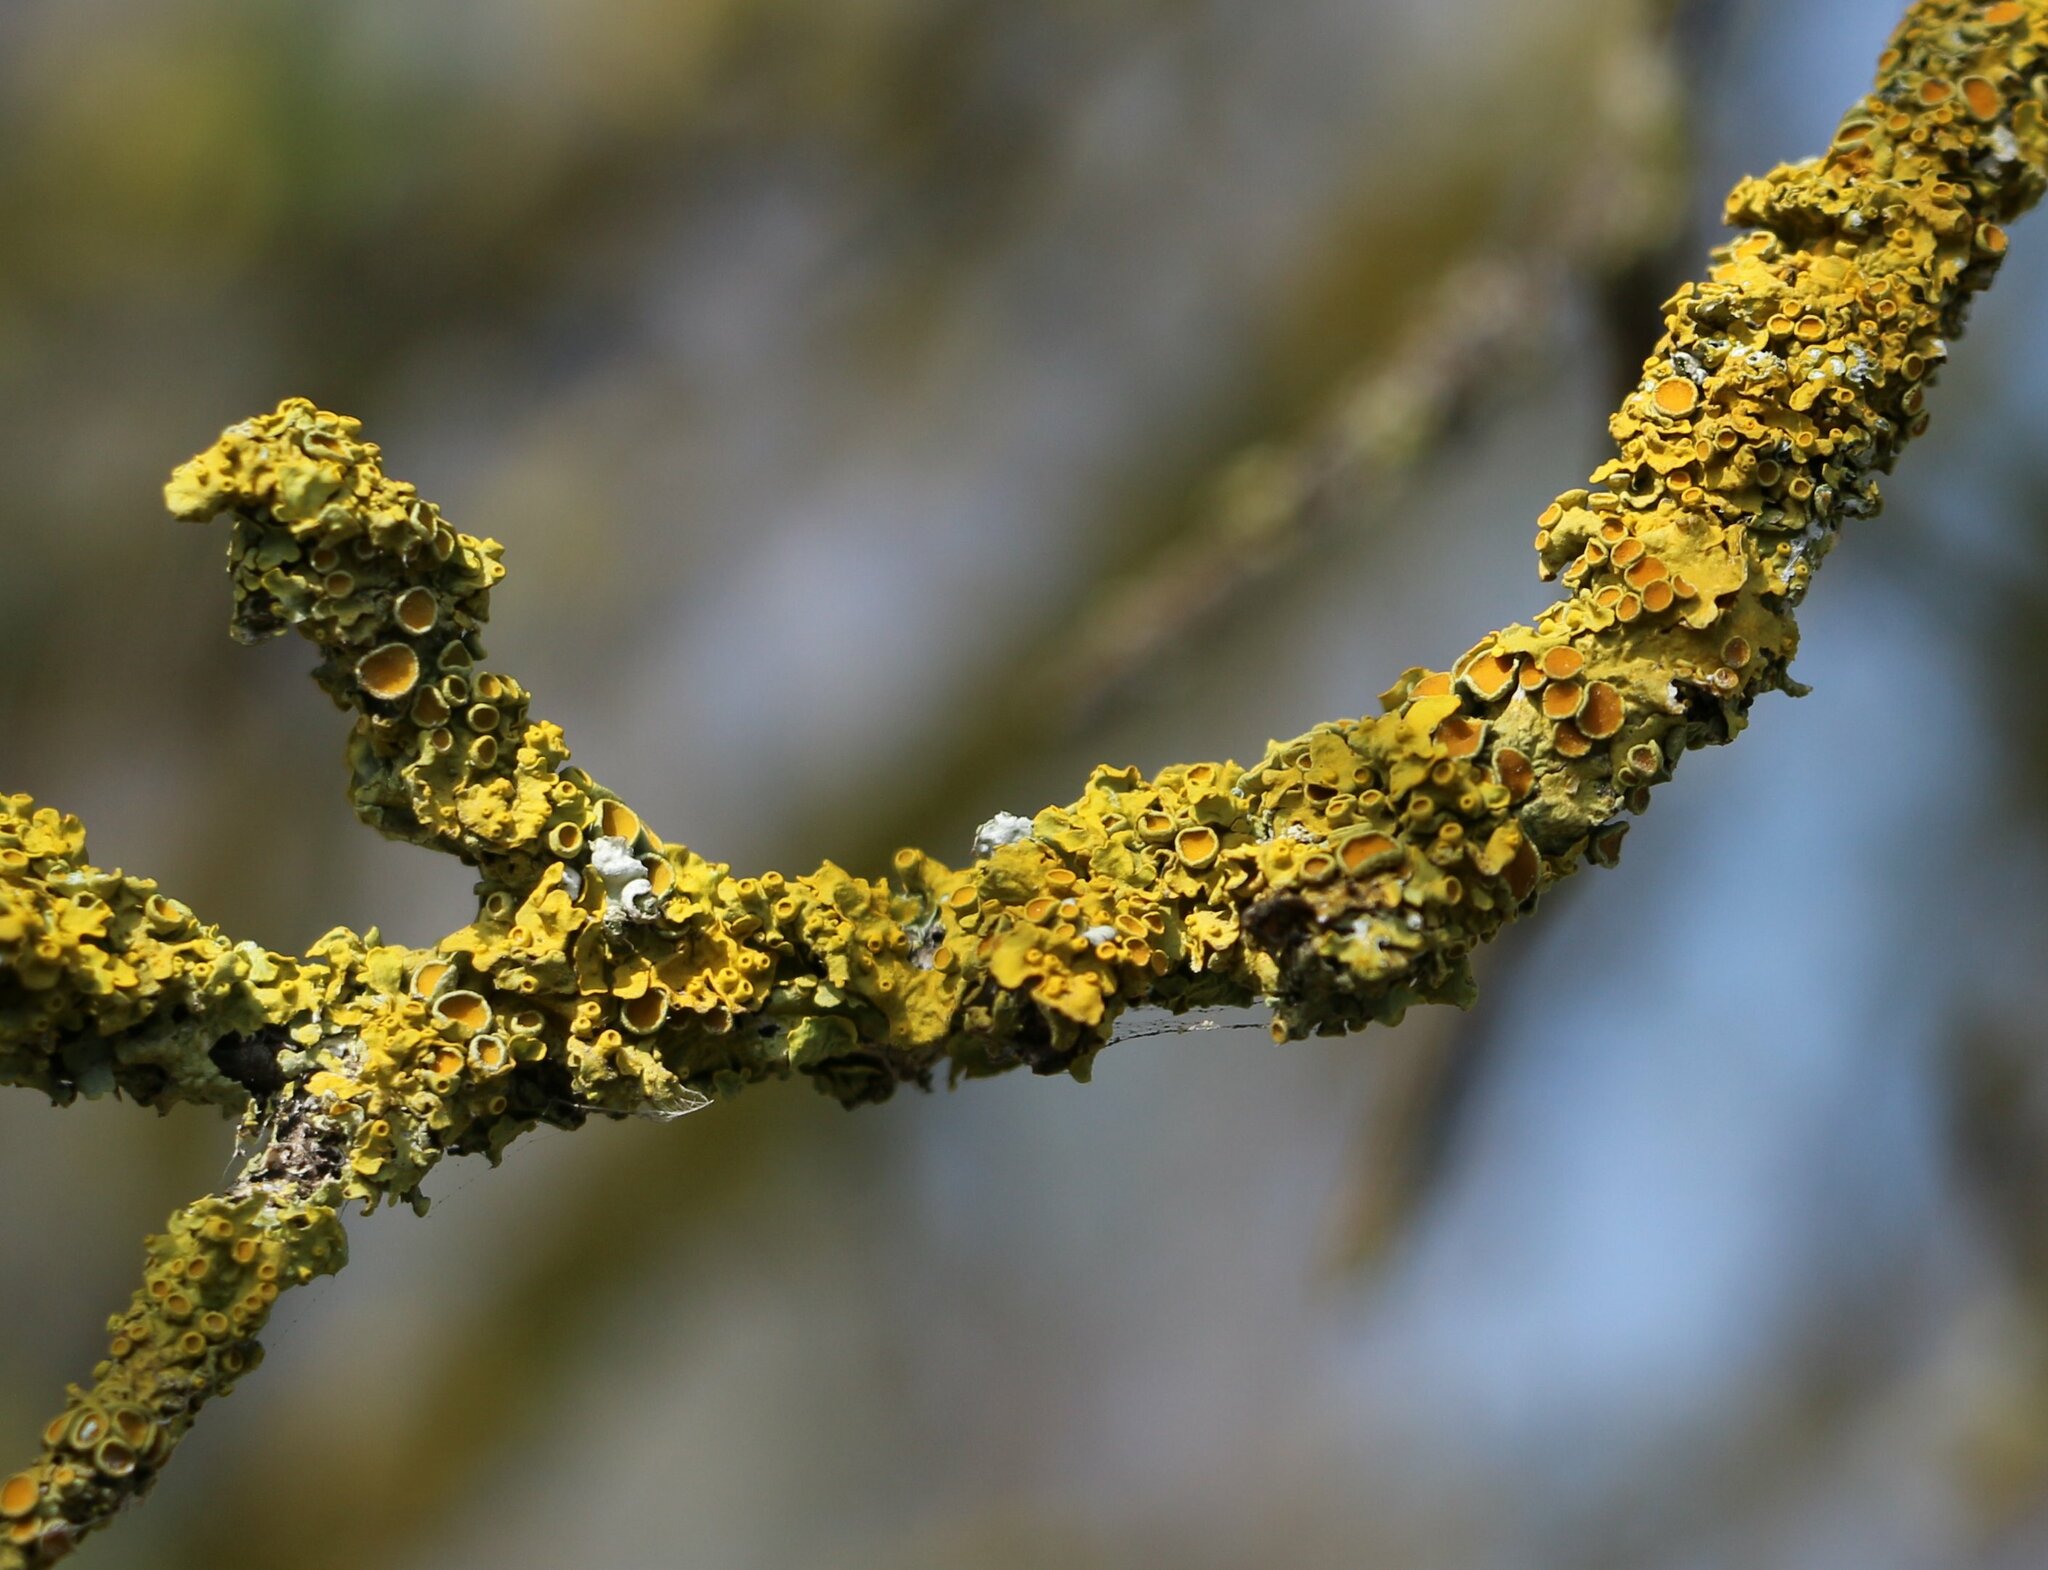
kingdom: Fungi
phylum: Ascomycota
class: Lecanoromycetes
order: Teloschistales
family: Teloschistaceae
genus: Xanthoria
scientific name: Xanthoria parietina
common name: Common orange lichen
